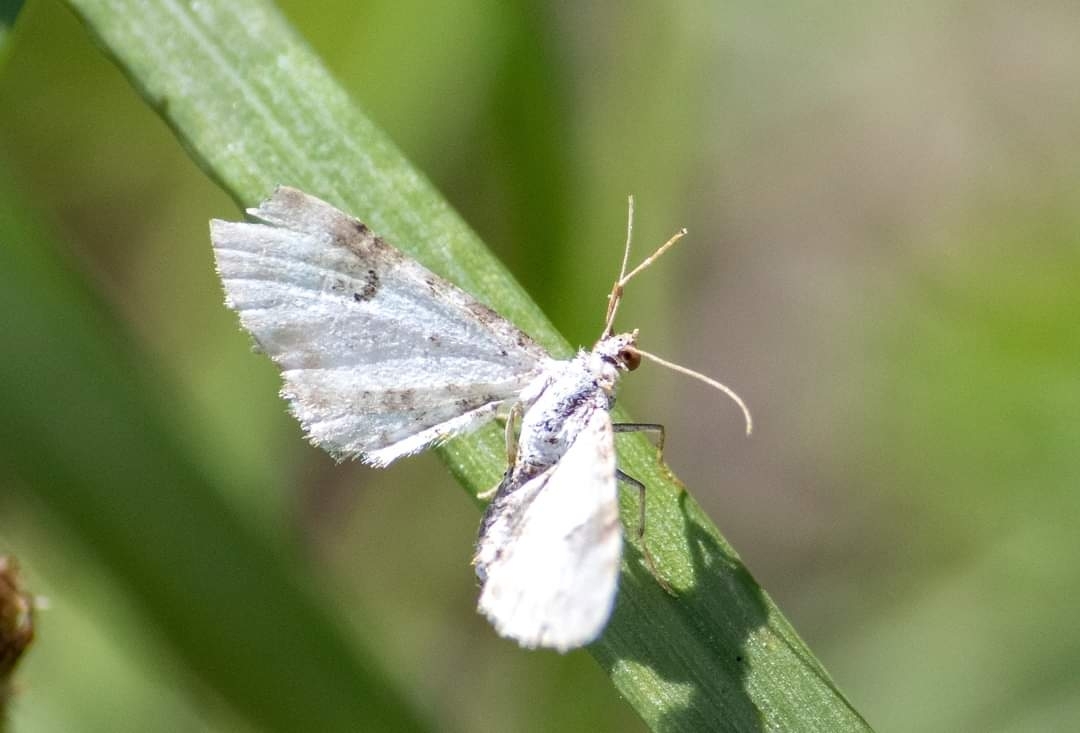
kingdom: Animalia
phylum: Arthropoda
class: Insecta
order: Lepidoptera
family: Geometridae
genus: Eupithecia
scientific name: Eupithecia centaureata
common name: Lime-speck pug
